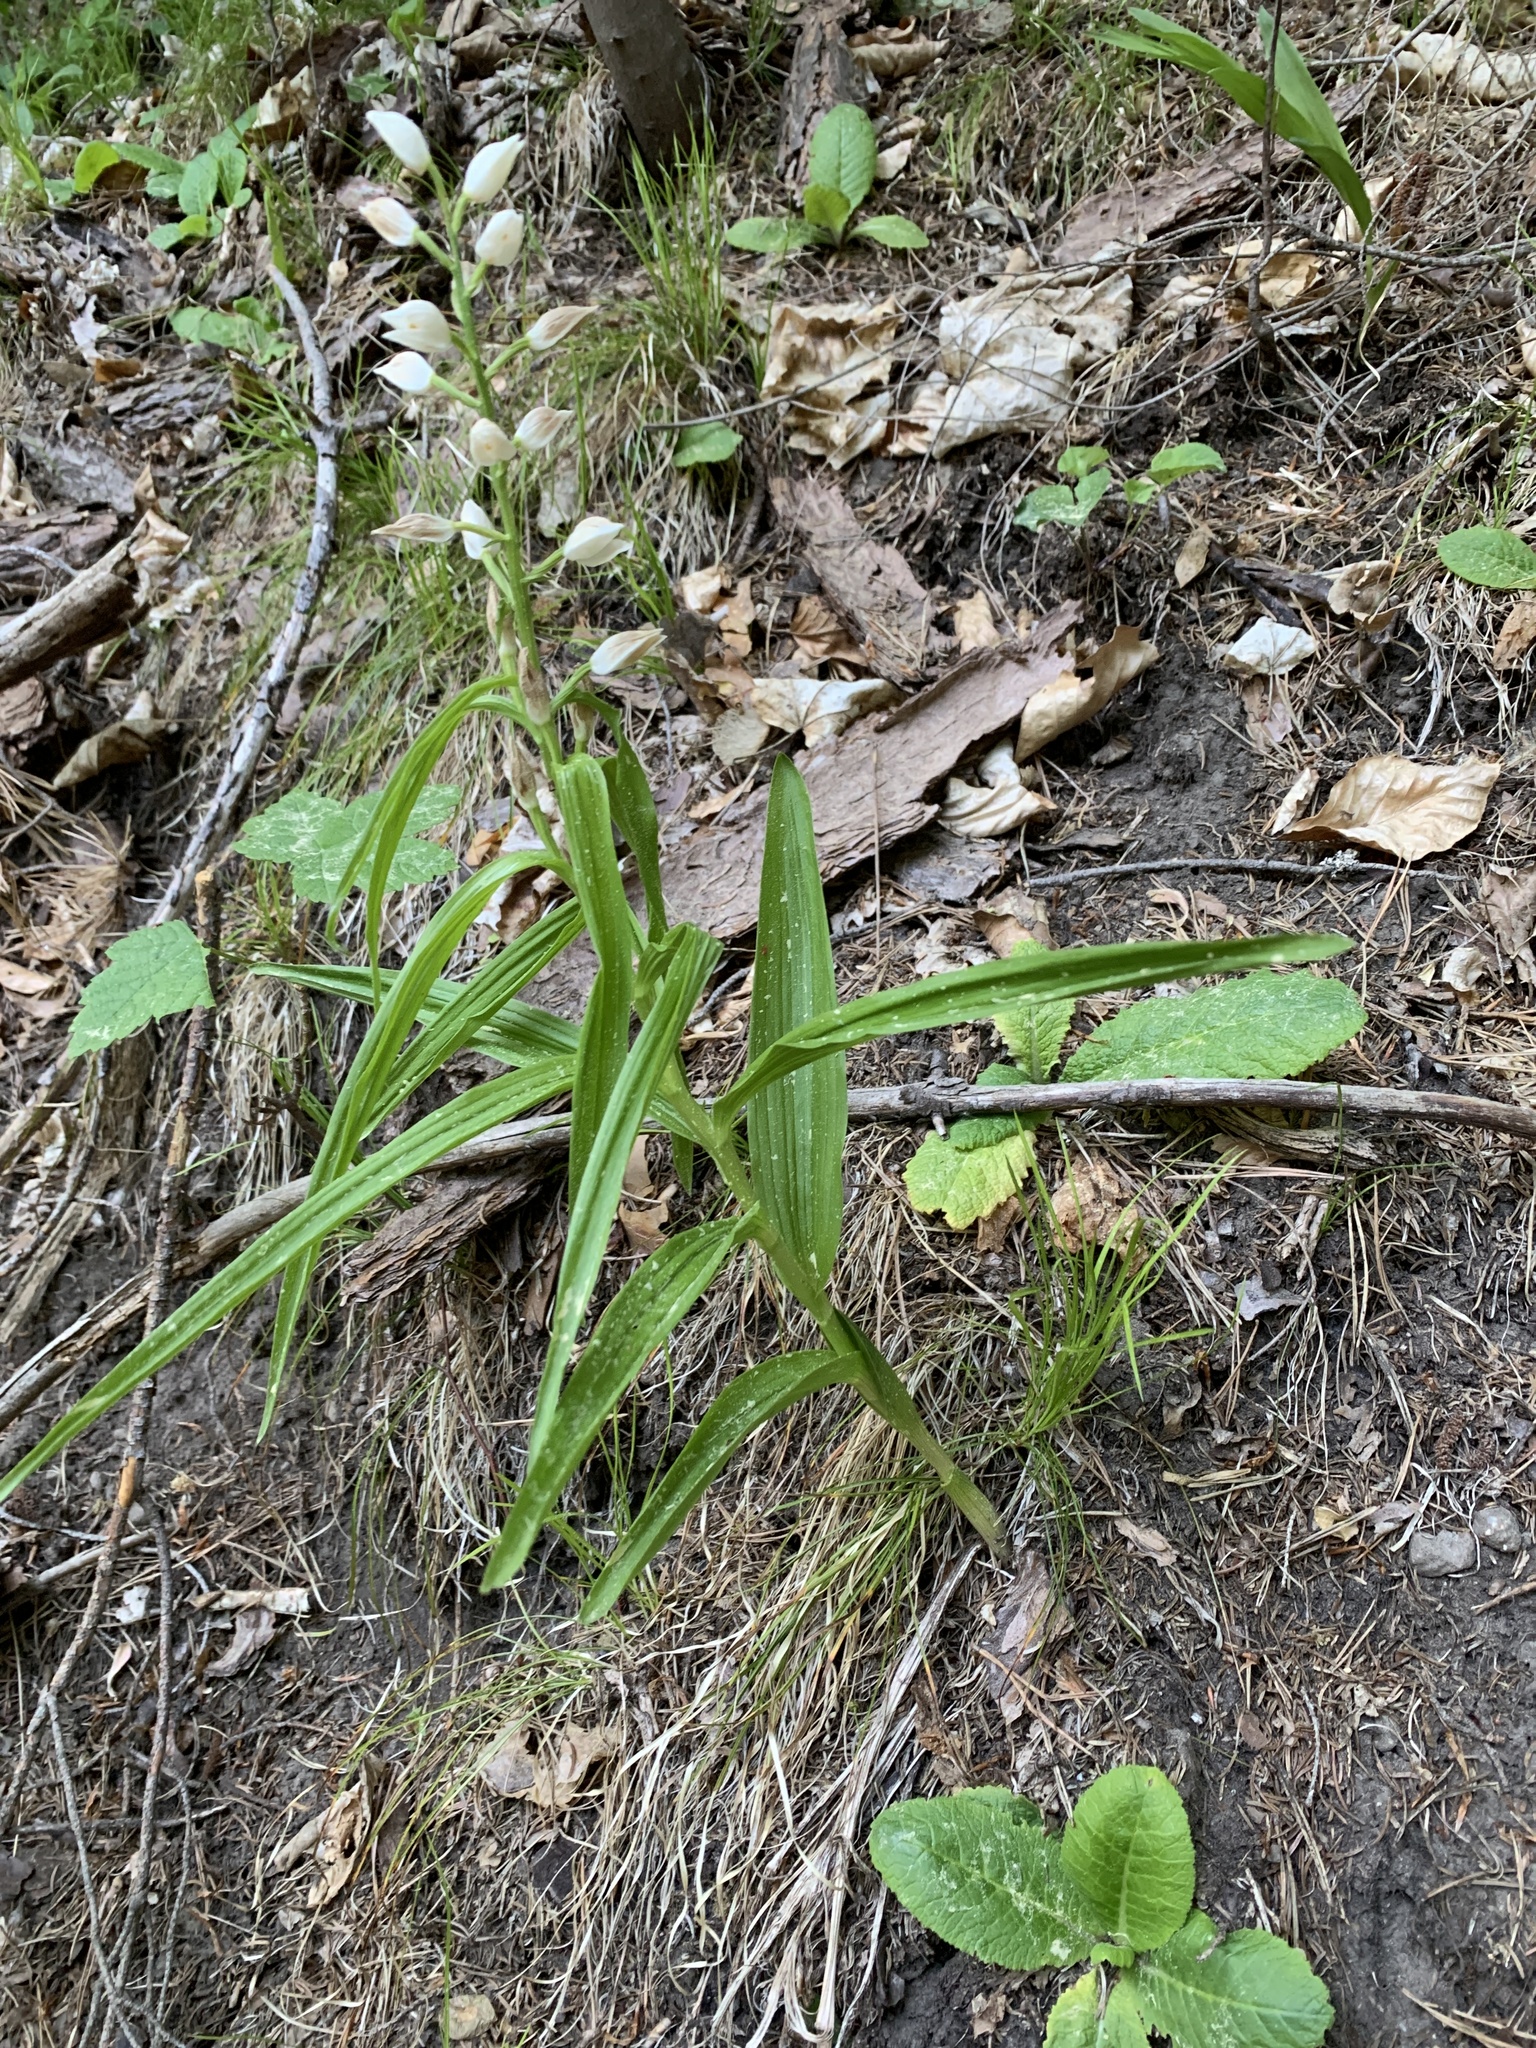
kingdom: Plantae
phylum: Tracheophyta
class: Liliopsida
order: Asparagales
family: Orchidaceae
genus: Cephalanthera
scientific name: Cephalanthera longifolia
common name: Narrow-leaved helleborine
